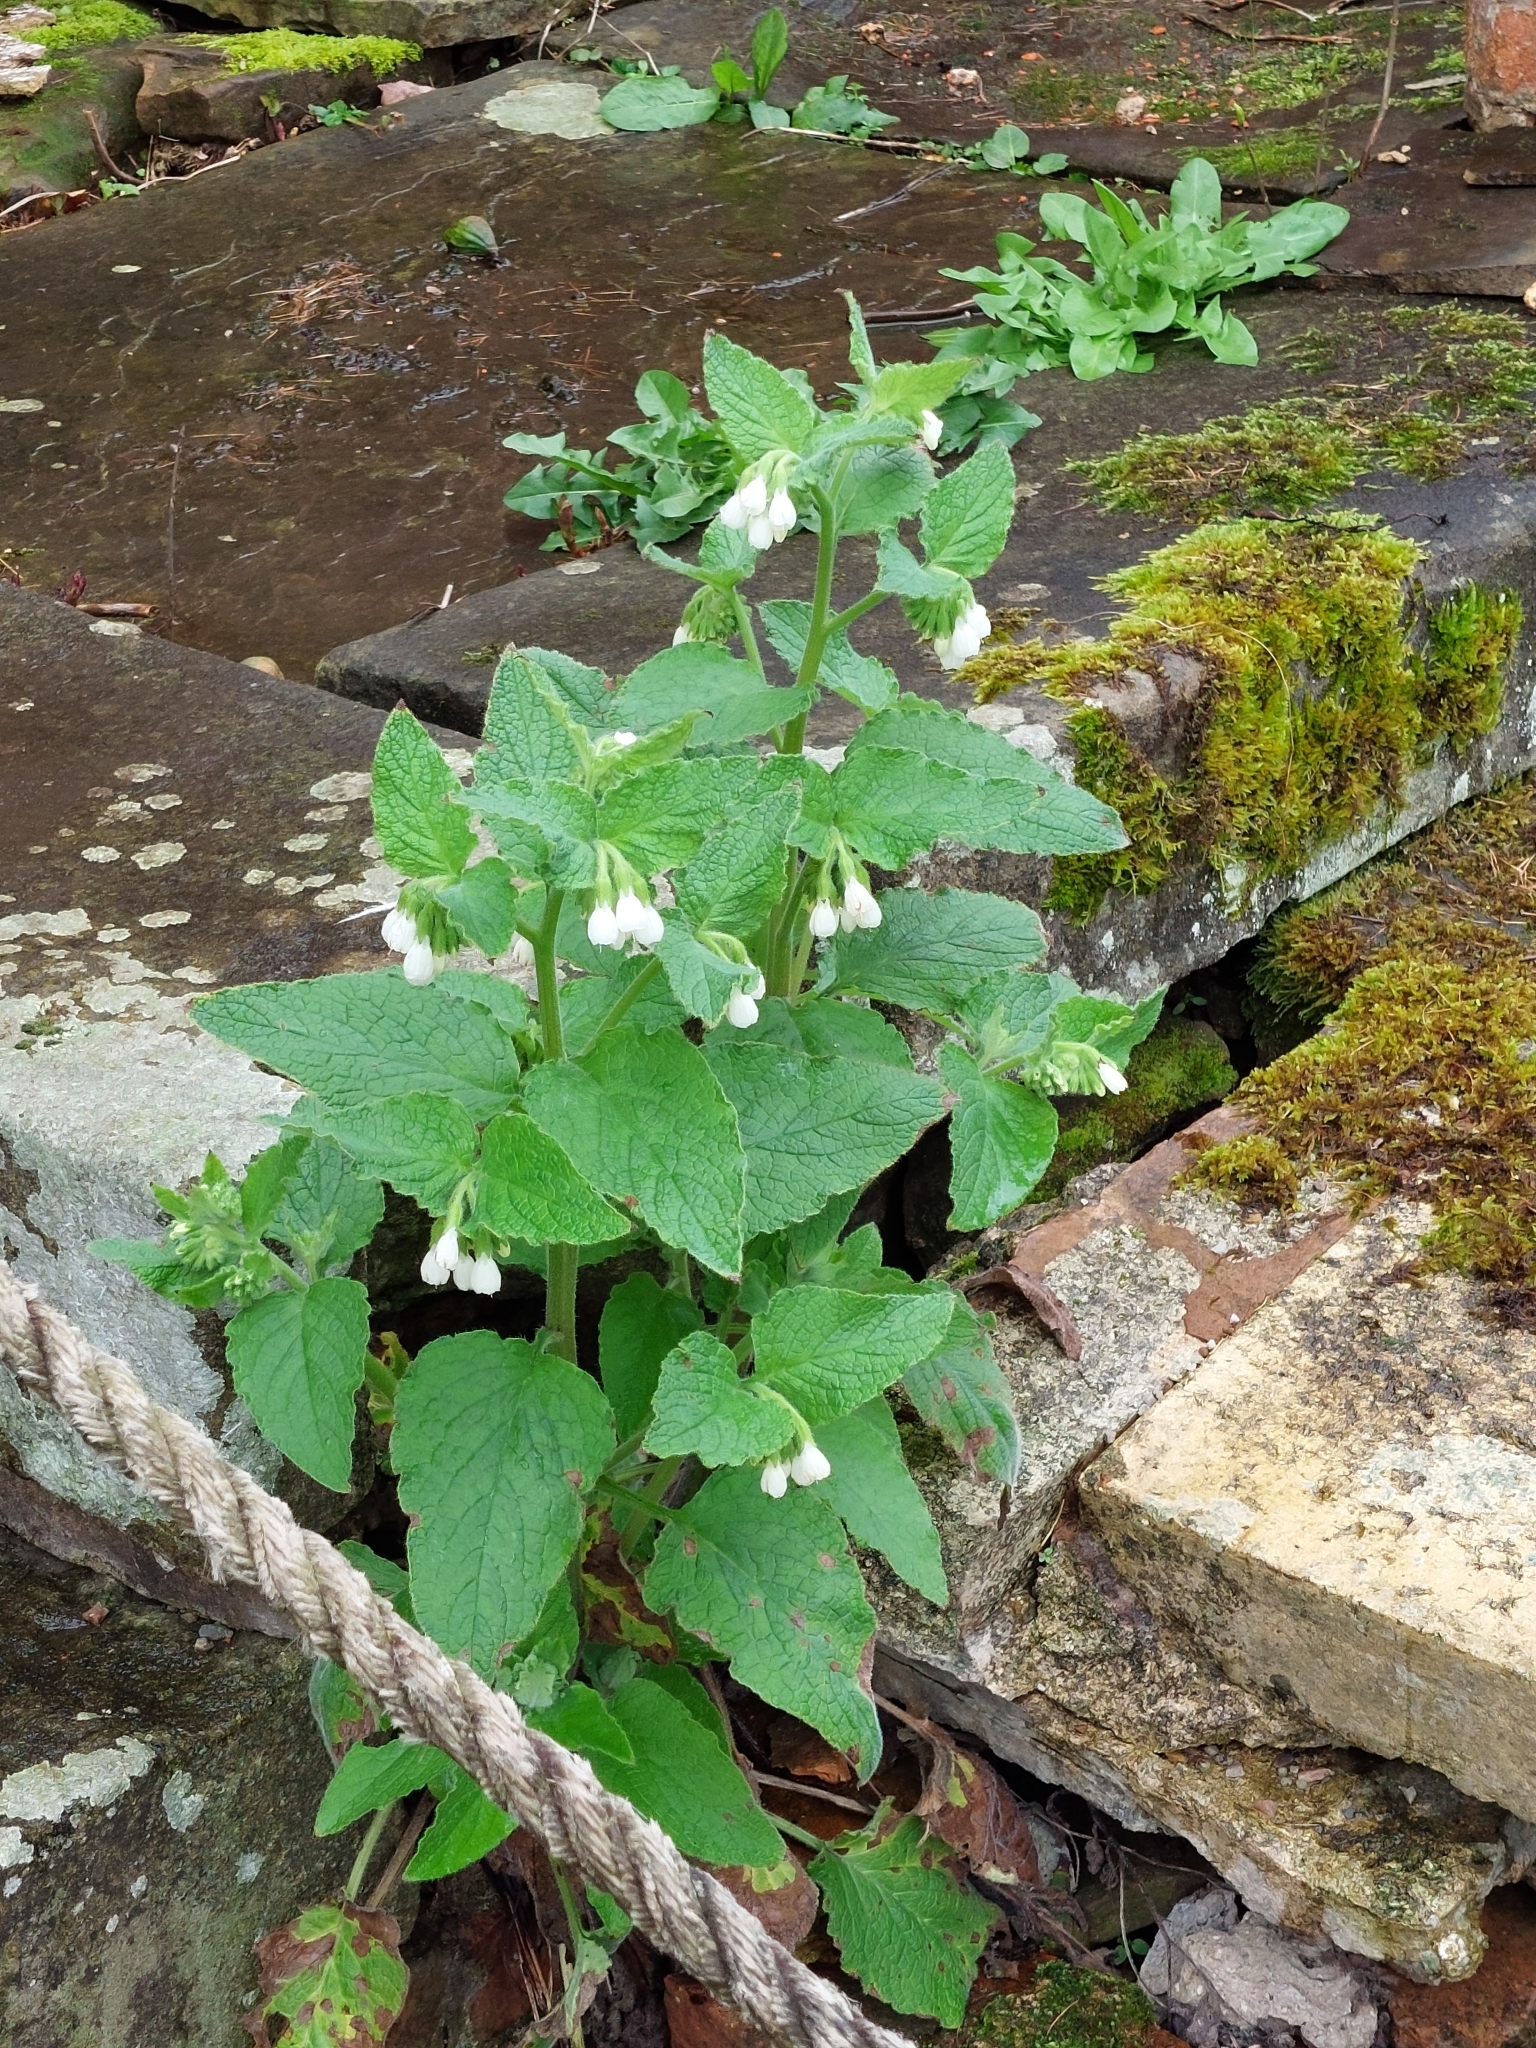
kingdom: Plantae
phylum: Tracheophyta
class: Magnoliopsida
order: Boraginales
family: Boraginaceae
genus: Symphytum
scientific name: Symphytum orientale
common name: White comfrey
